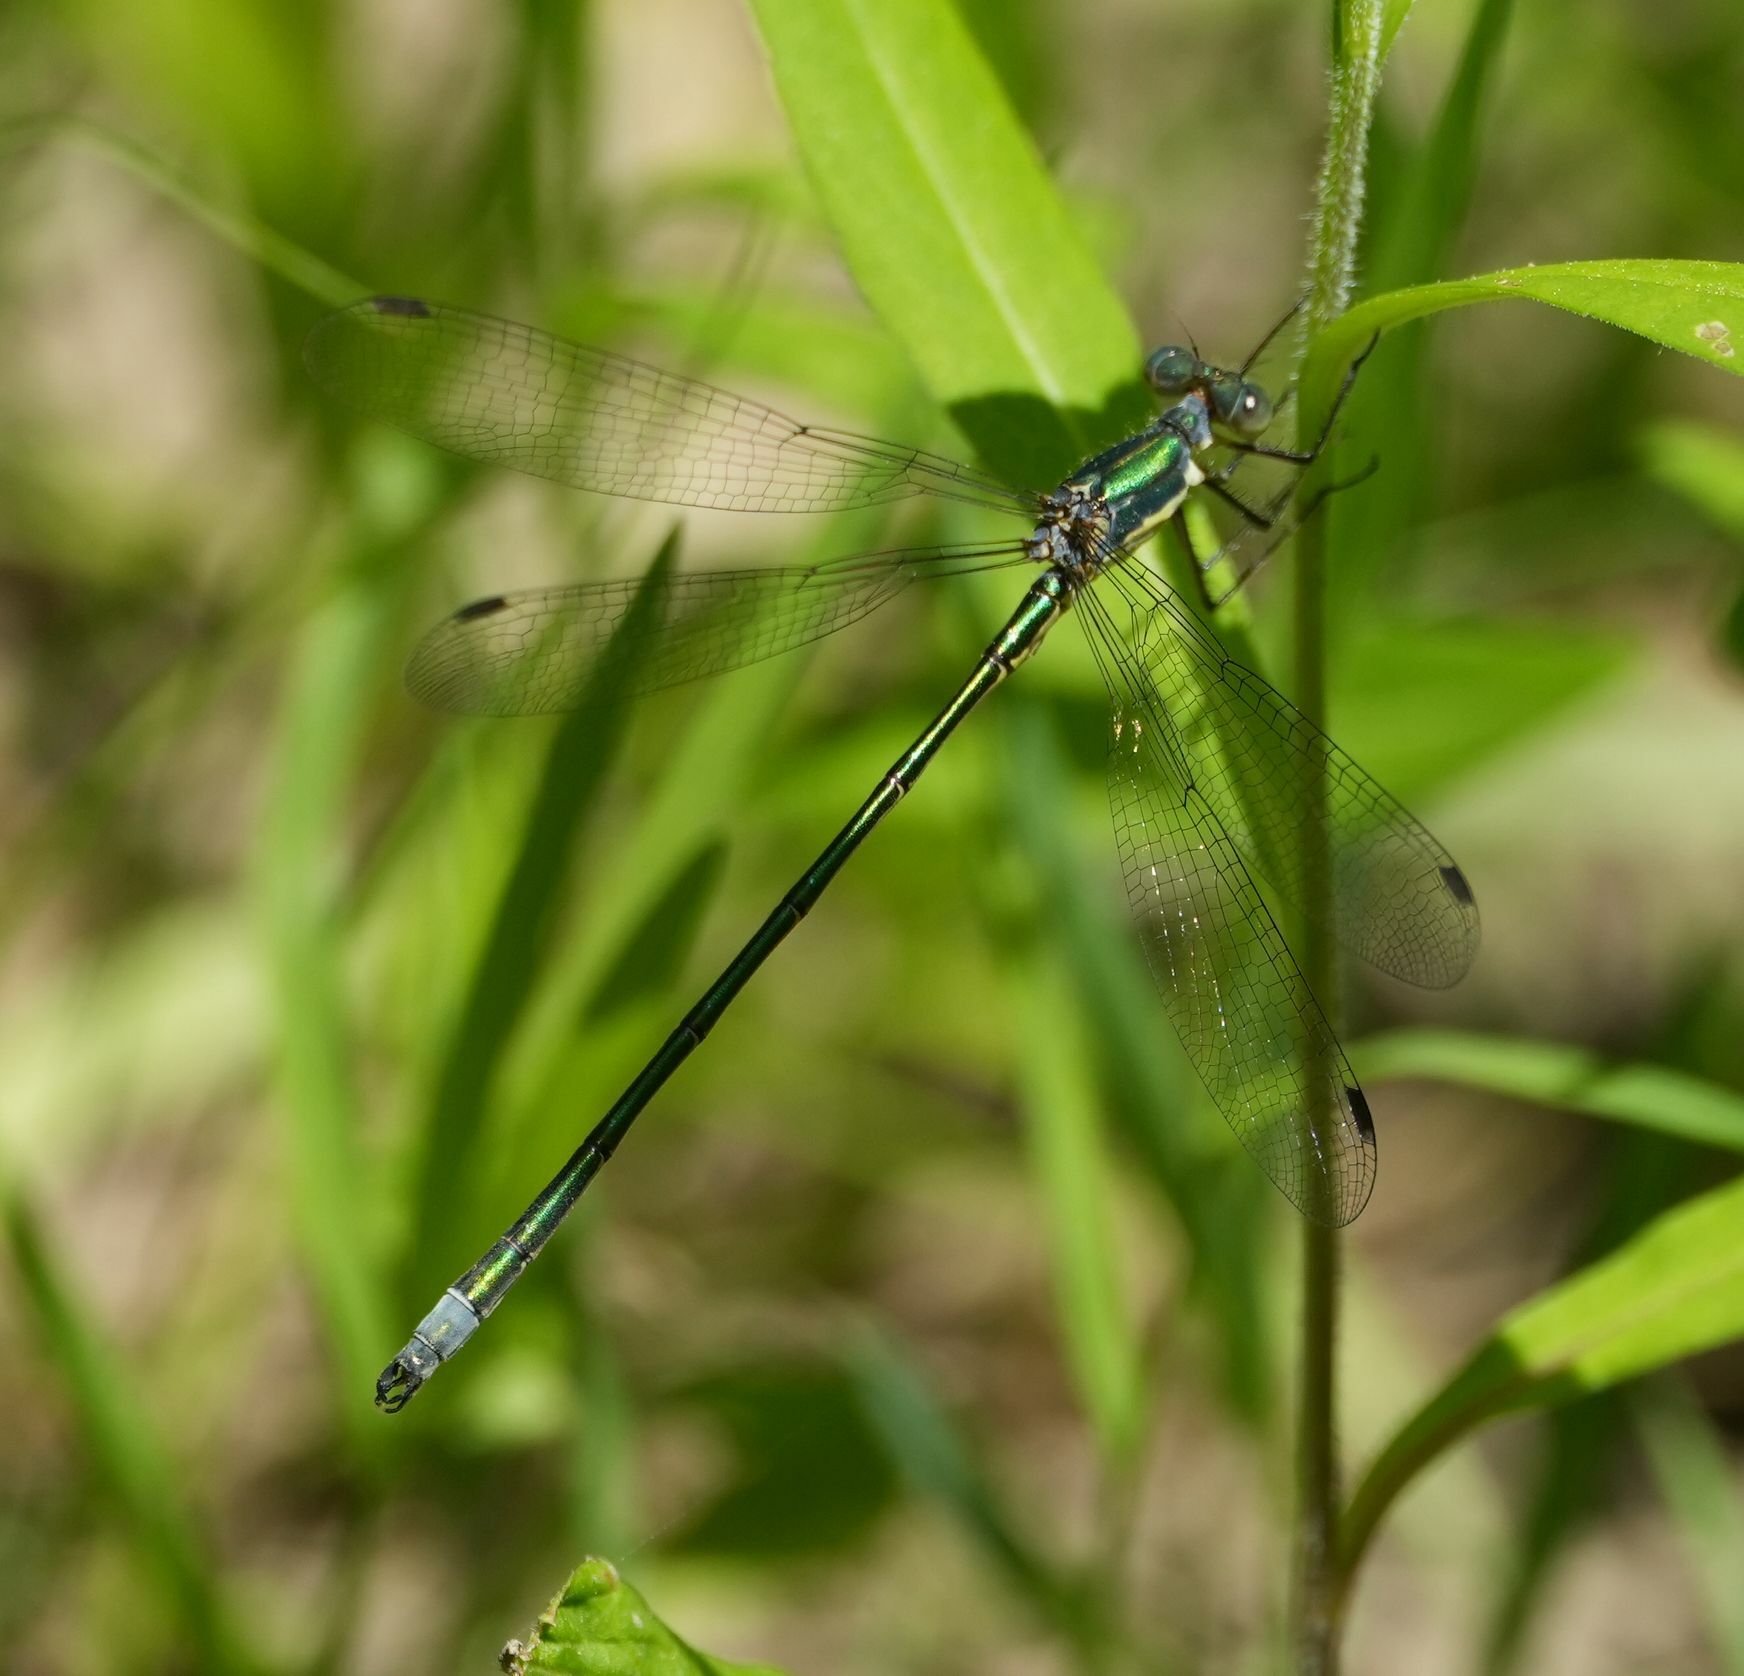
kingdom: Animalia
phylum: Arthropoda
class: Insecta
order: Odonata
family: Lestidae
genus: Lestes
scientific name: Lestes inaequalis
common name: Elegant spreadwing
